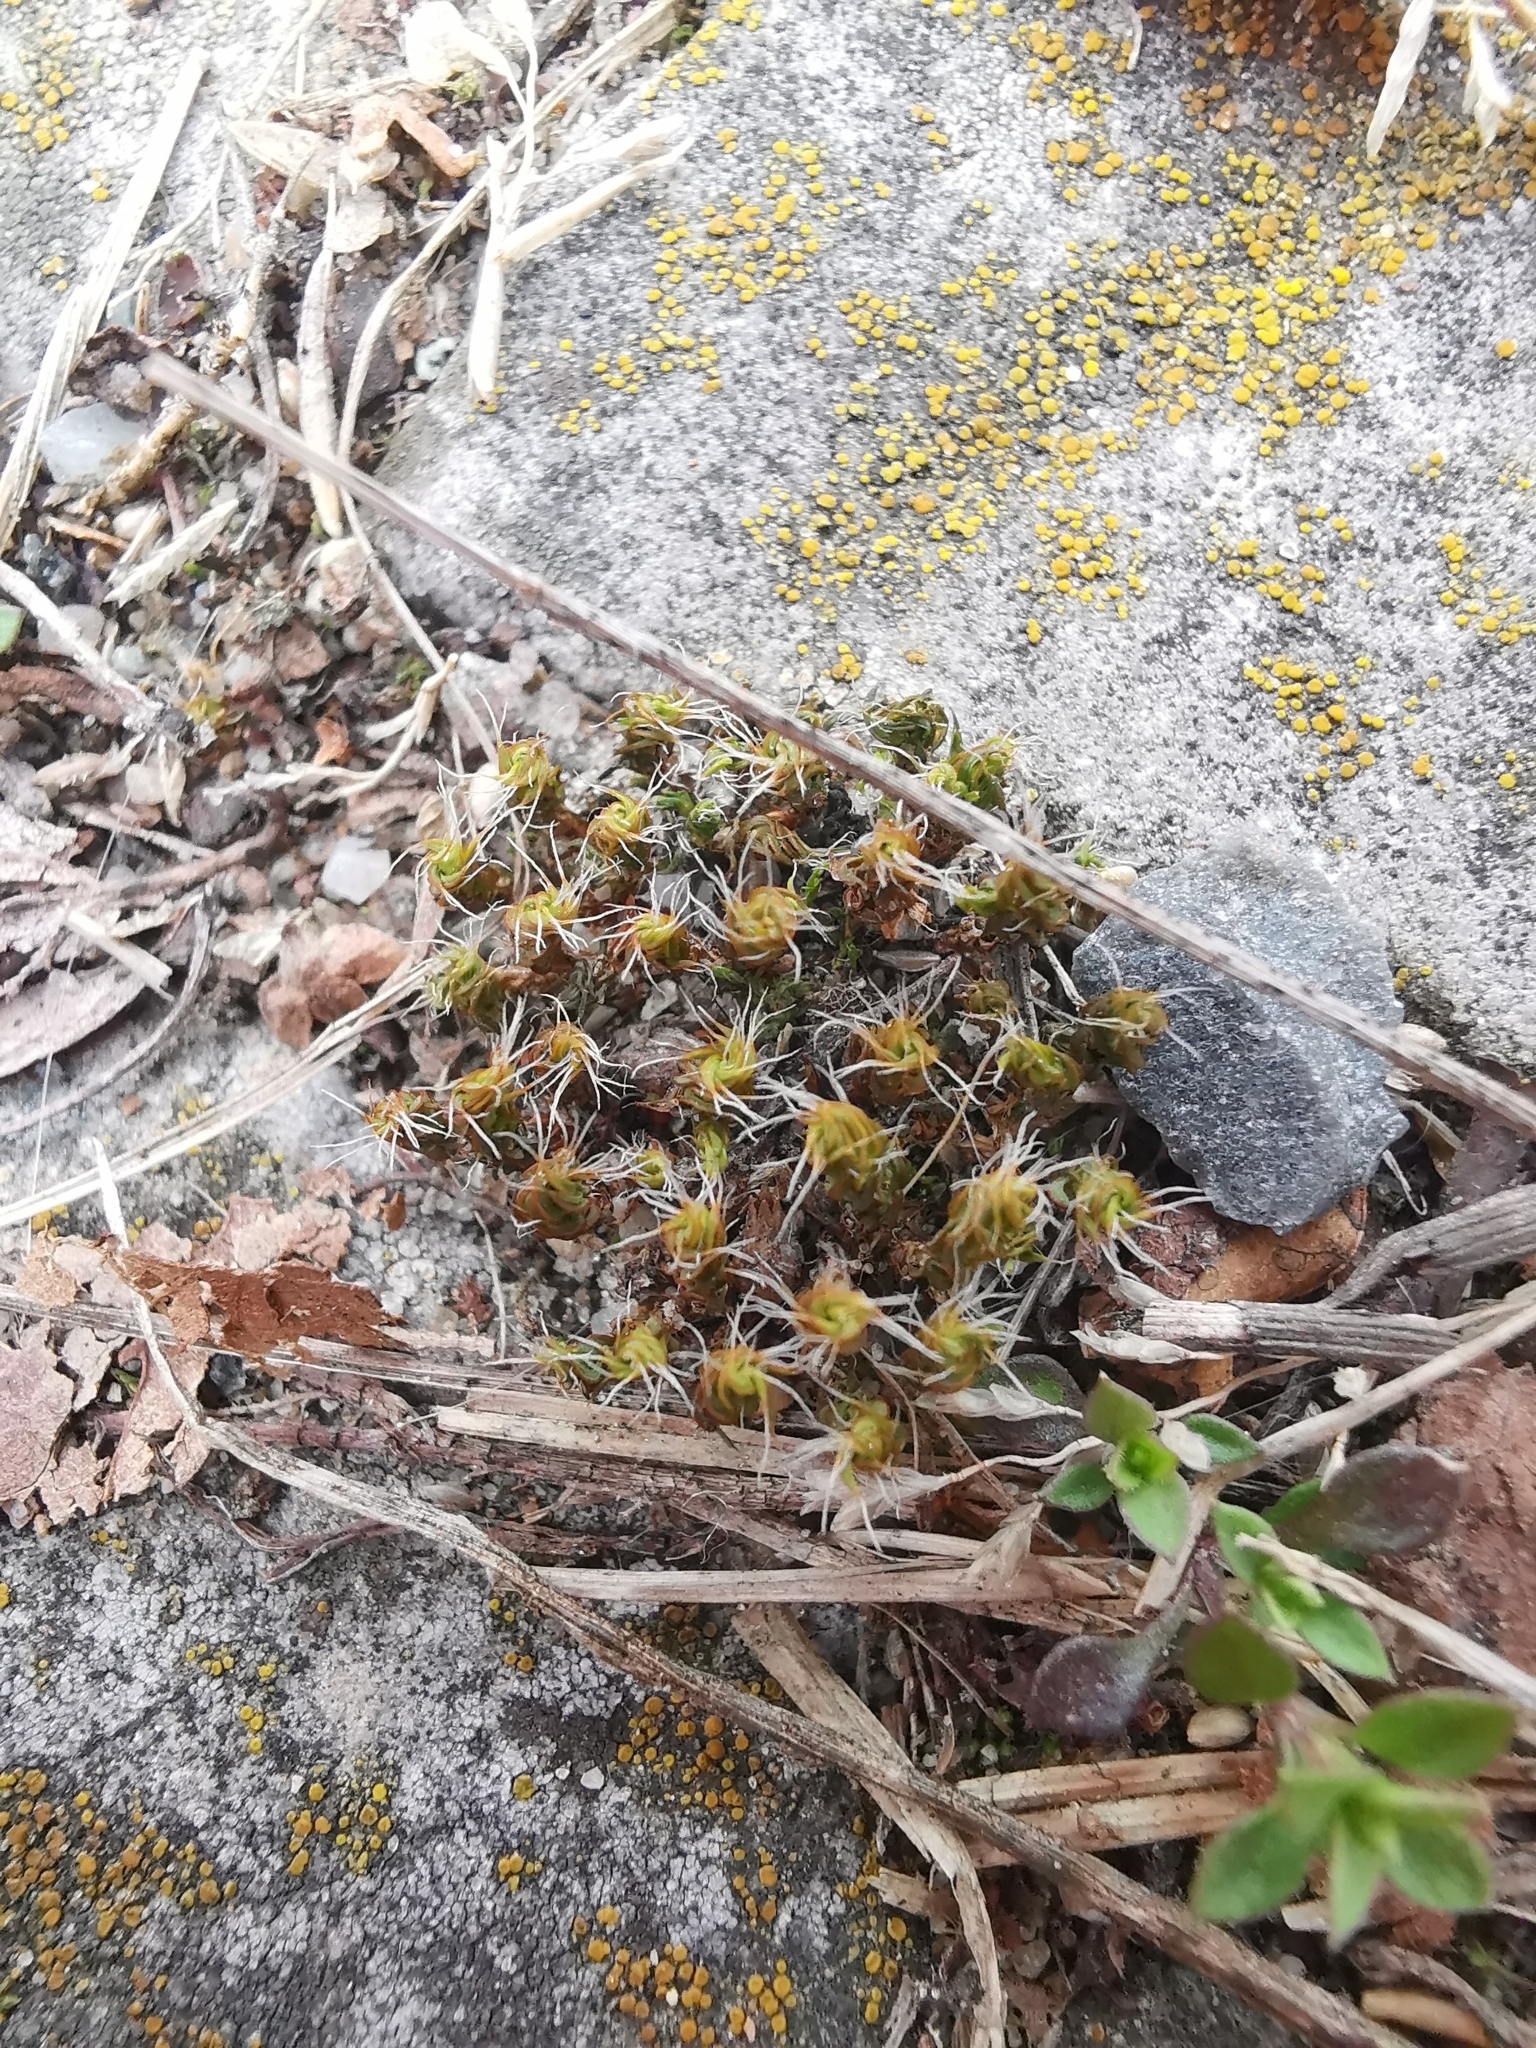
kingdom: Plantae
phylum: Bryophyta
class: Bryopsida
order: Pottiales
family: Pottiaceae
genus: Syntrichia
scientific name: Syntrichia ruralis
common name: Sidewalk screw moss
